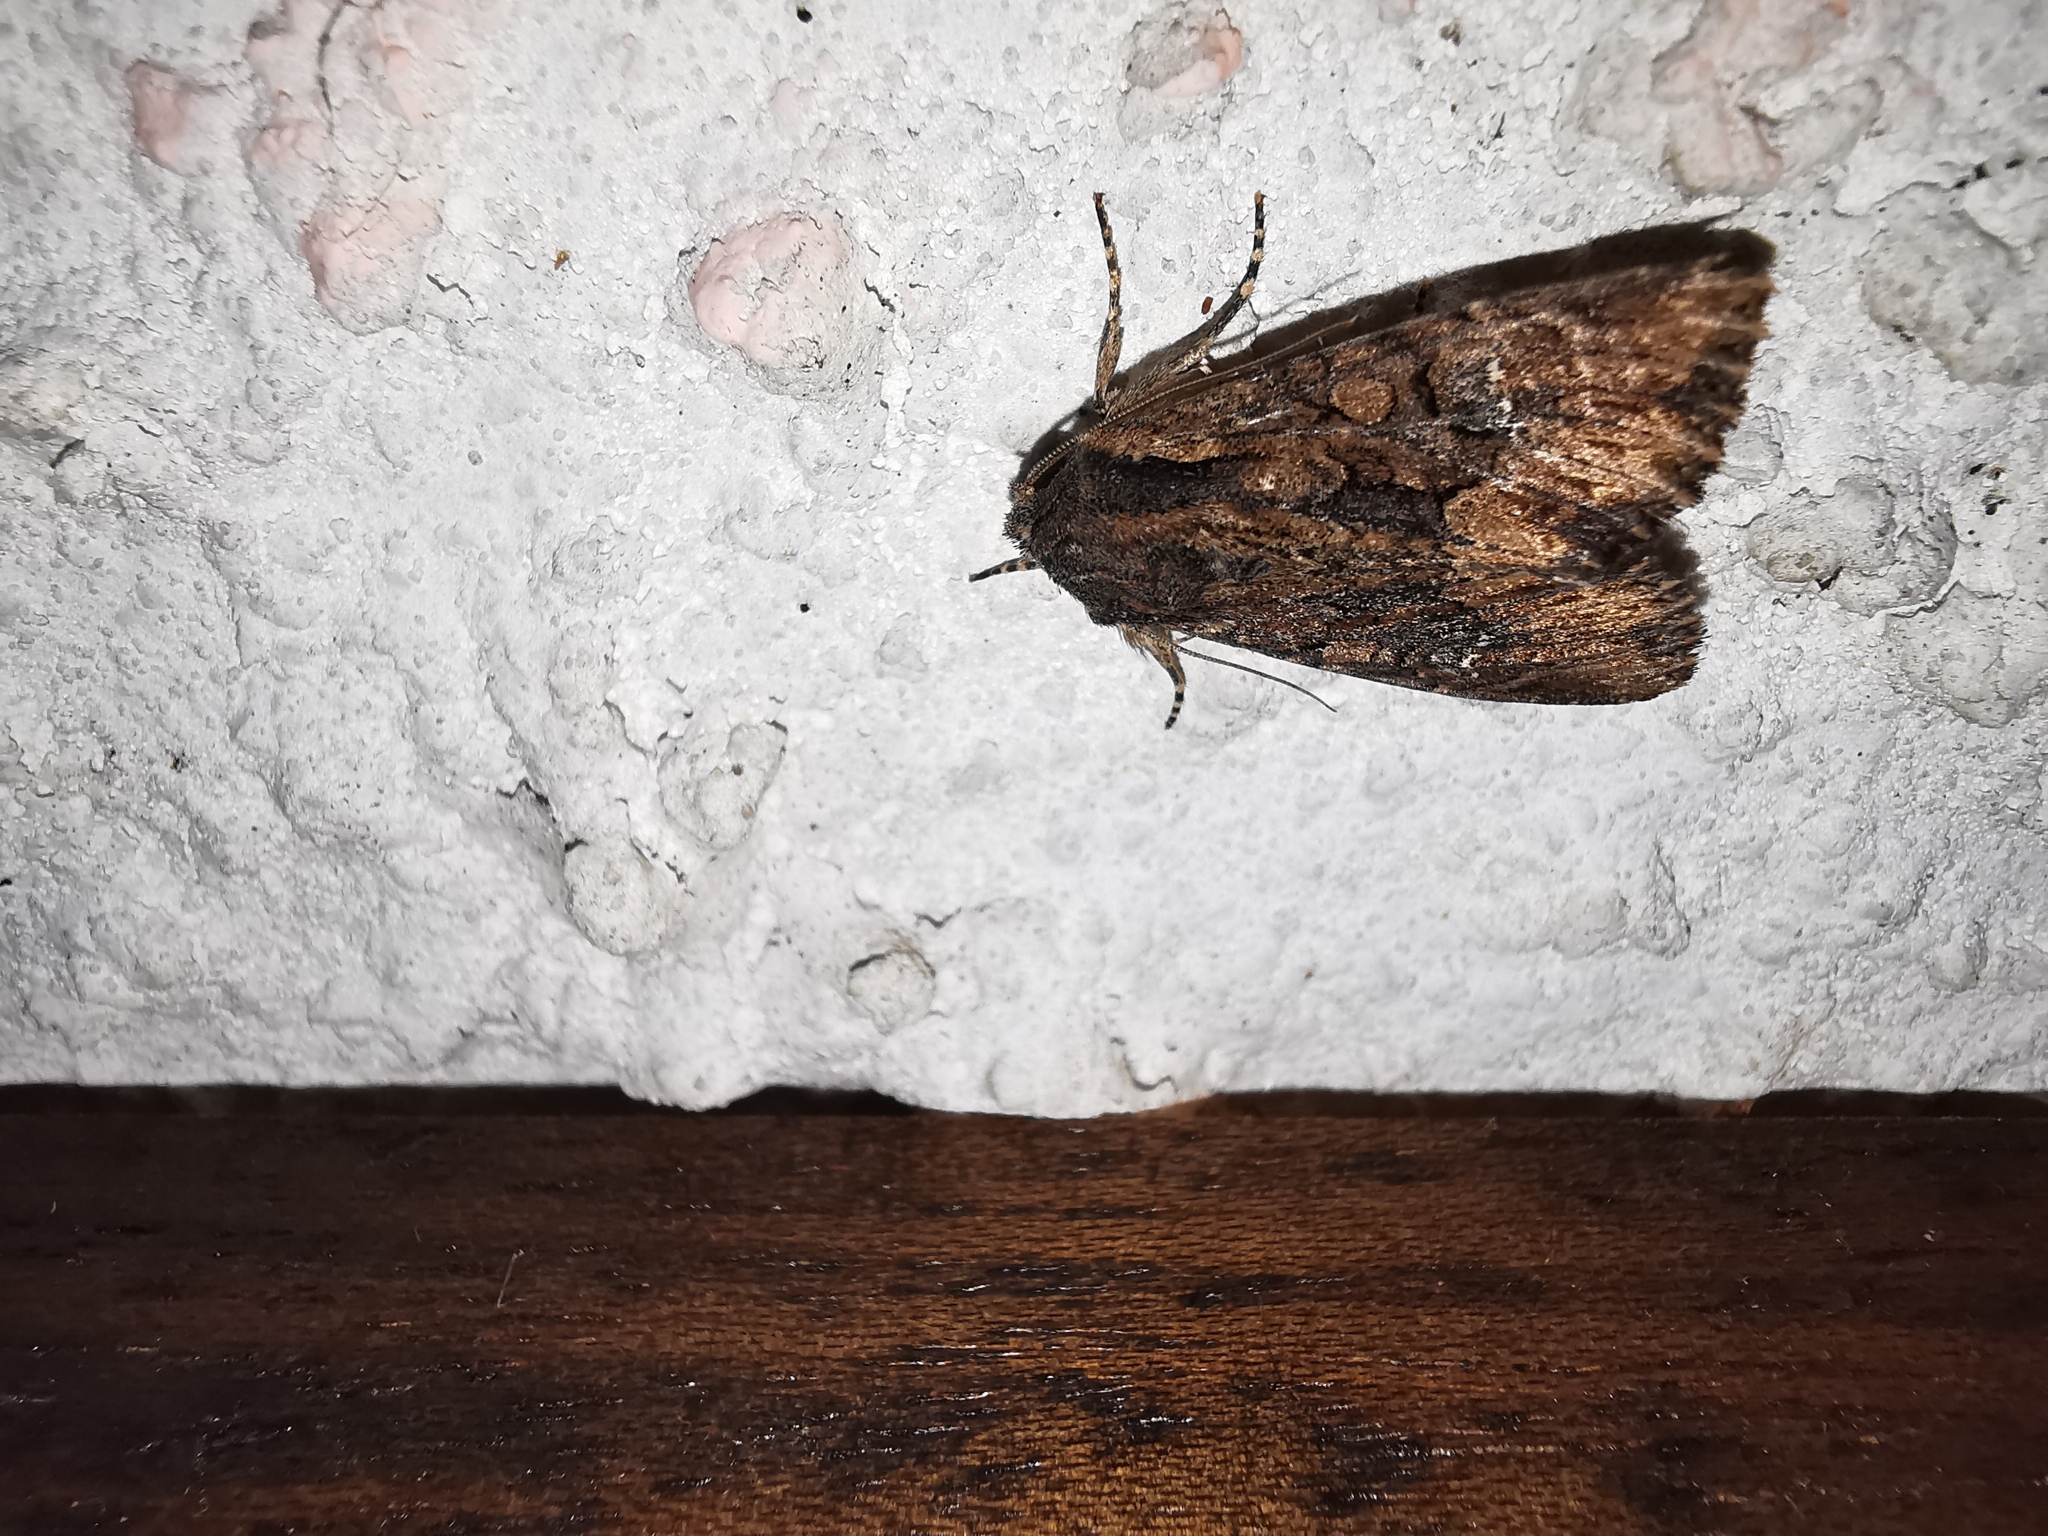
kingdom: Animalia
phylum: Arthropoda
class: Insecta
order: Lepidoptera
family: Noctuidae
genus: Mniotype
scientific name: Mniotype solieri
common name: Bedrule brocade
